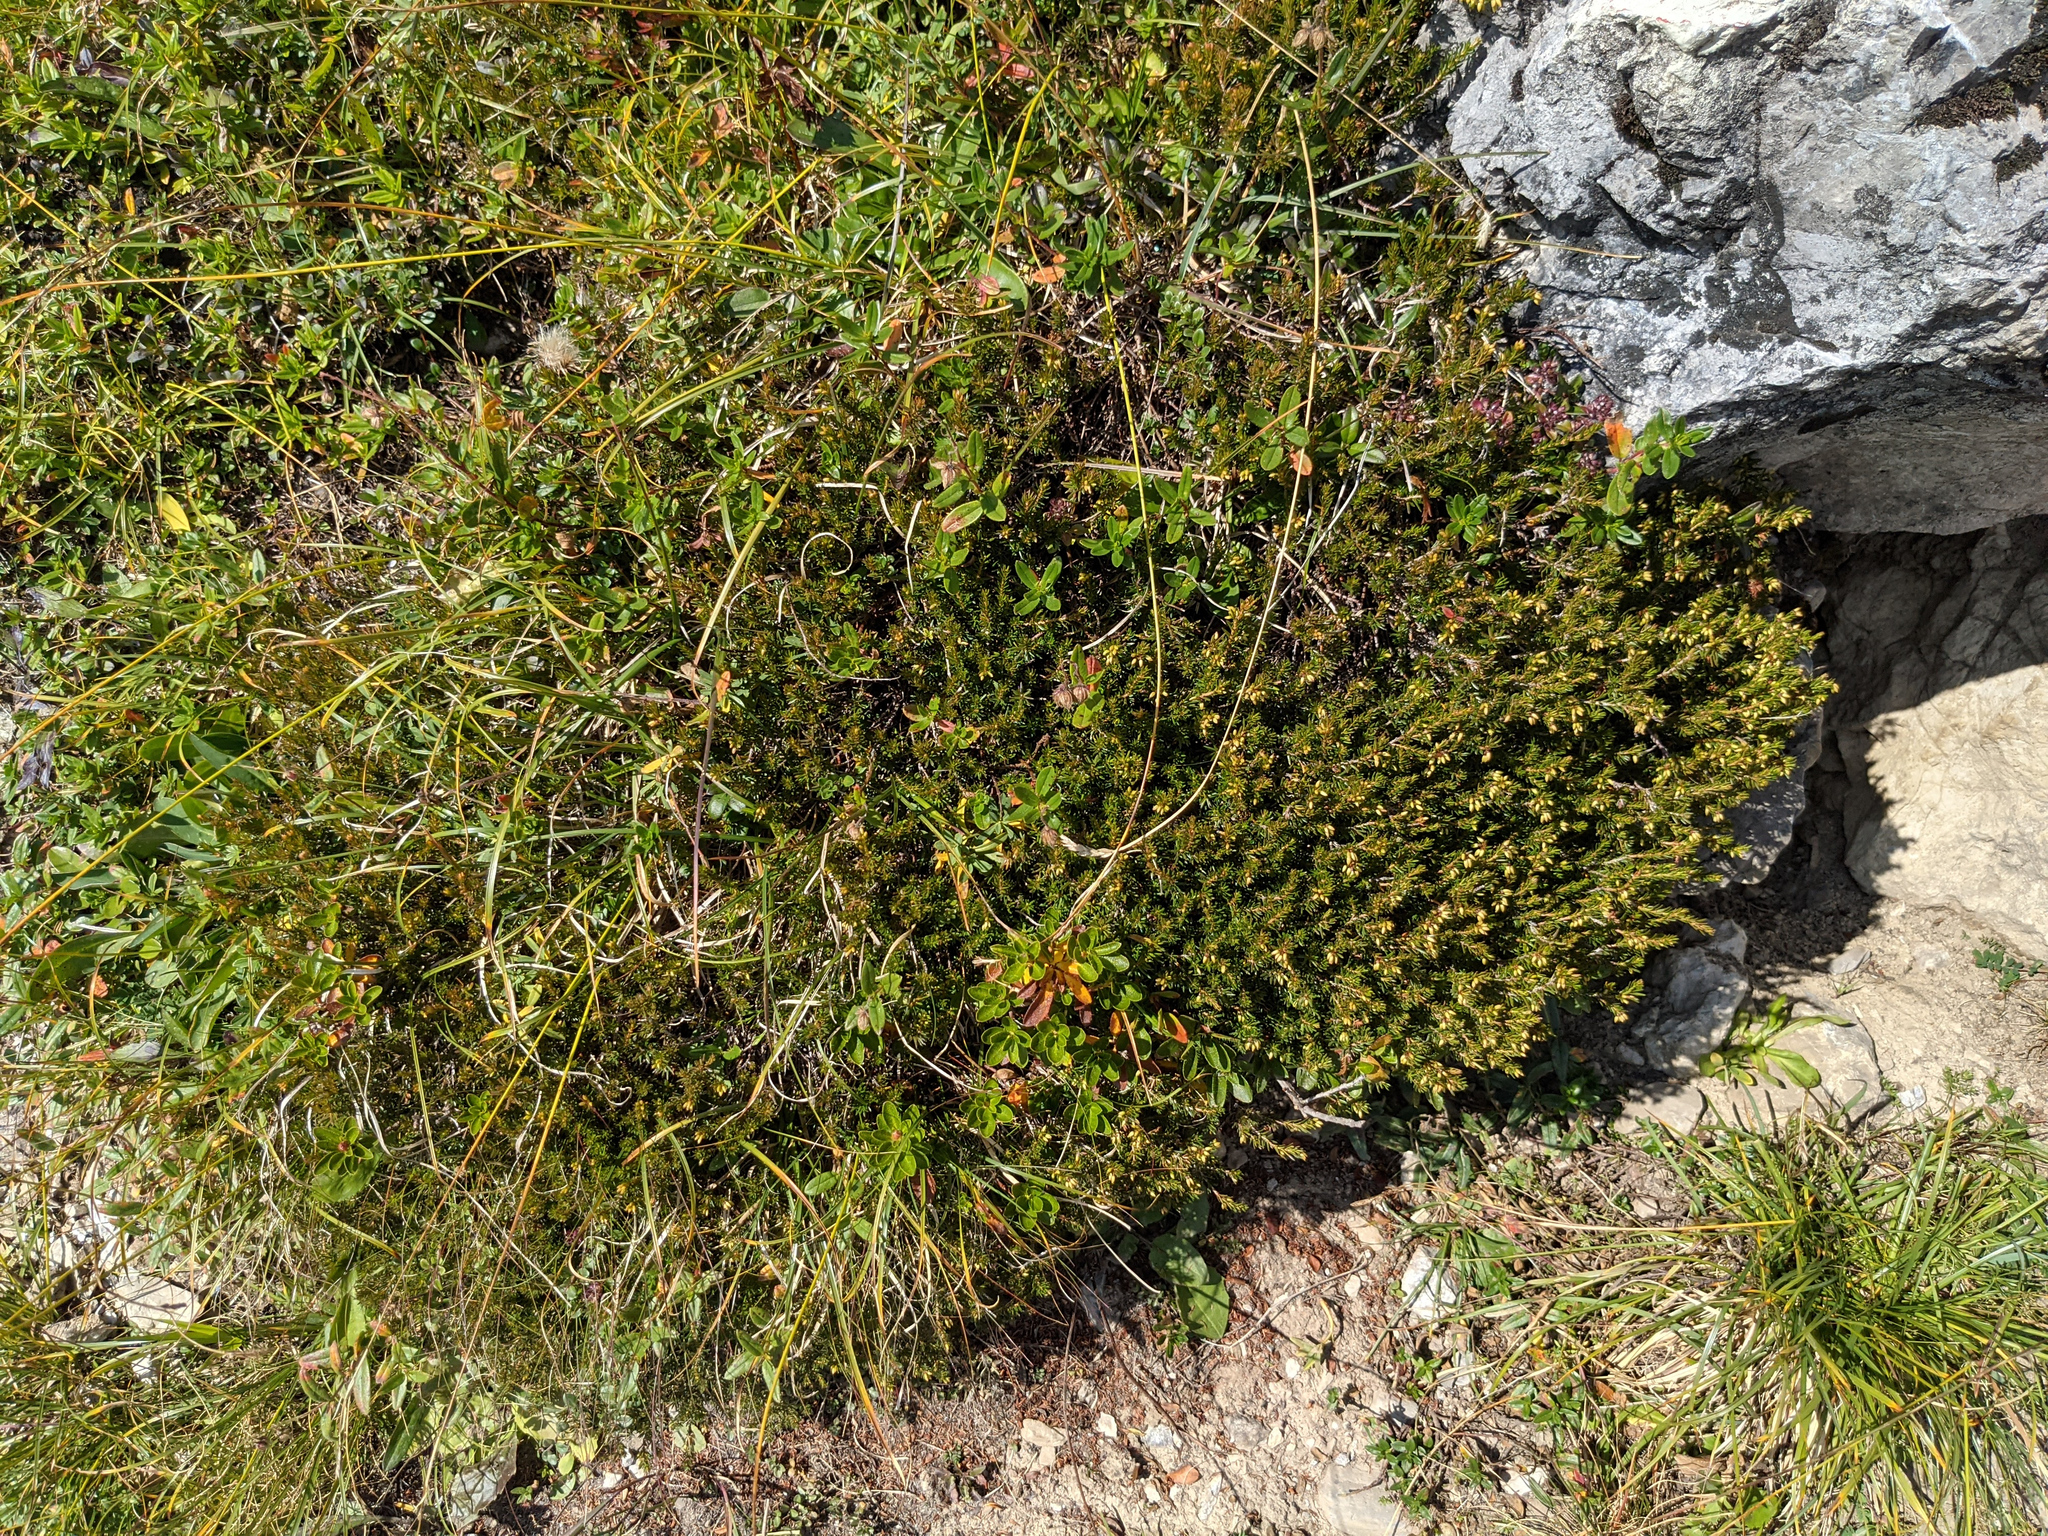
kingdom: Plantae
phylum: Tracheophyta
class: Magnoliopsida
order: Ericales
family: Ericaceae
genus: Erica
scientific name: Erica carnea
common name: Winter heath
